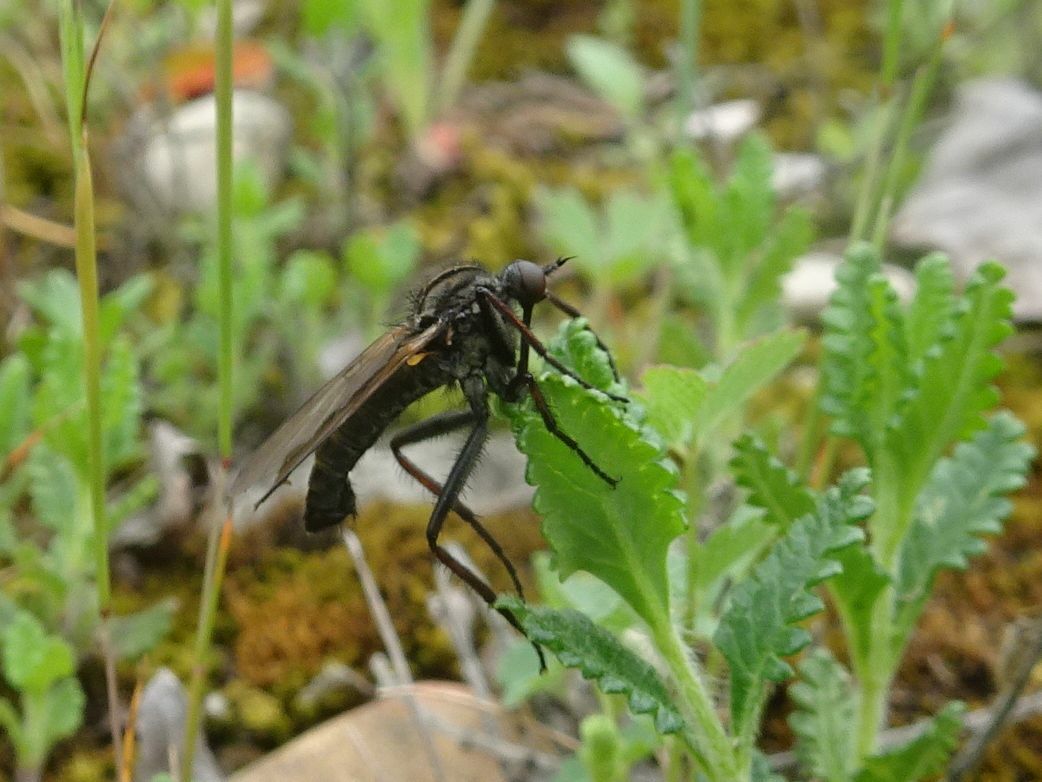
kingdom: Animalia
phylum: Arthropoda
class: Insecta
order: Diptera
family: Empididae
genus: Empis
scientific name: Empis tessellata
